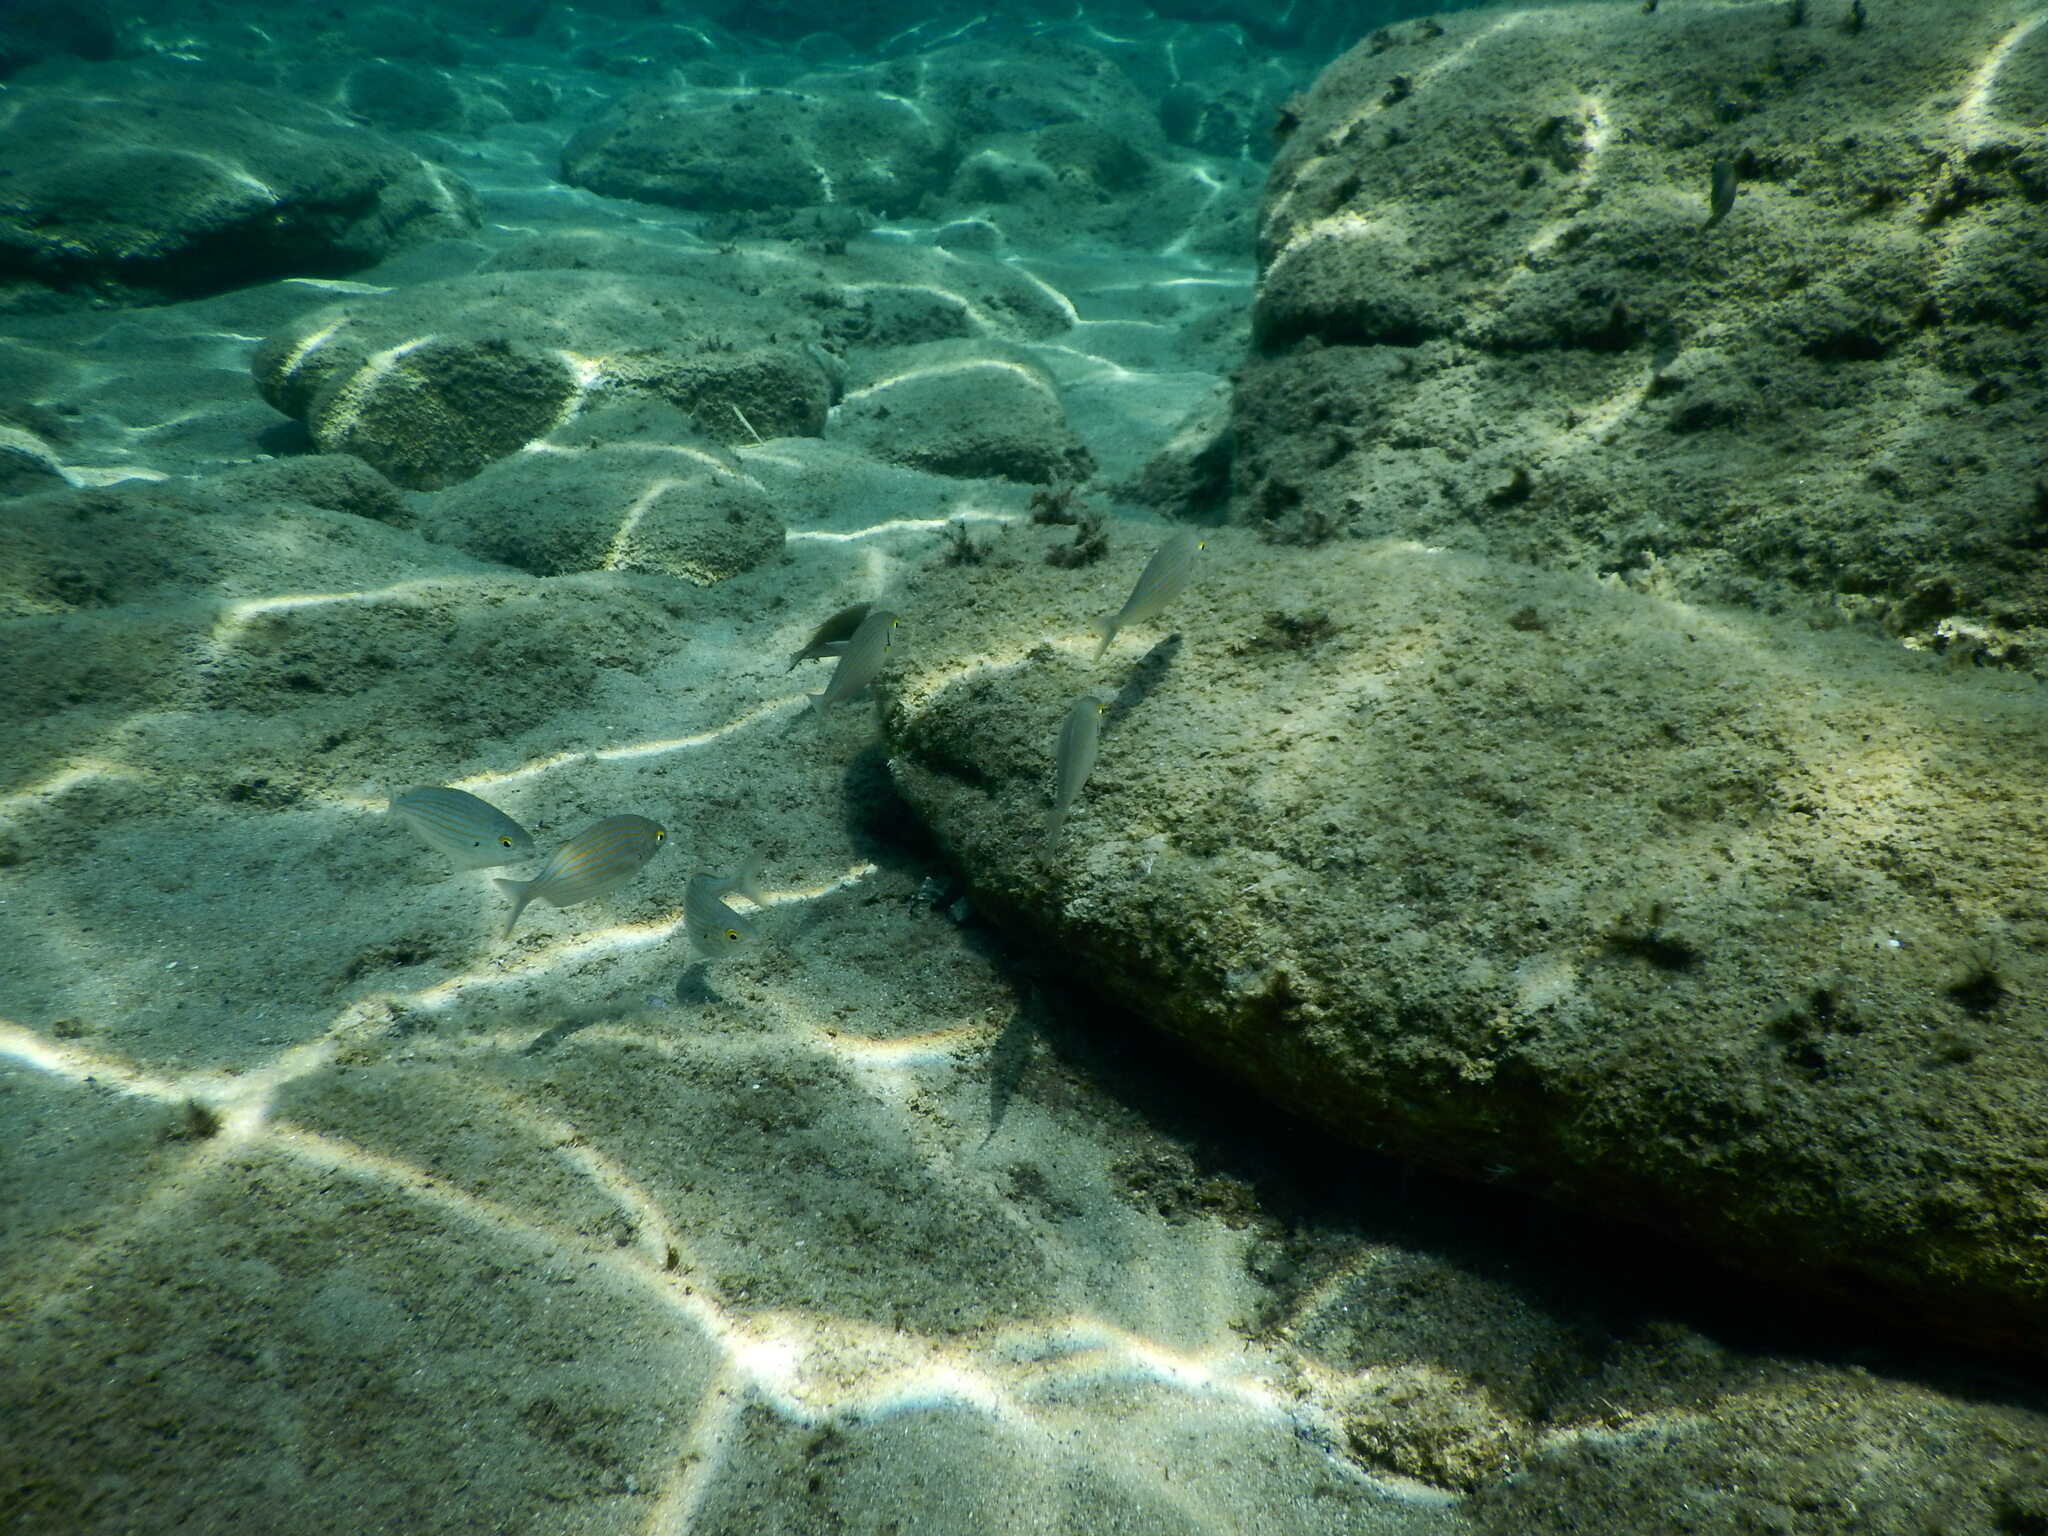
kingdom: Animalia
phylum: Chordata
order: Perciformes
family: Sparidae
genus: Sarpa
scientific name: Sarpa salpa
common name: Salema
